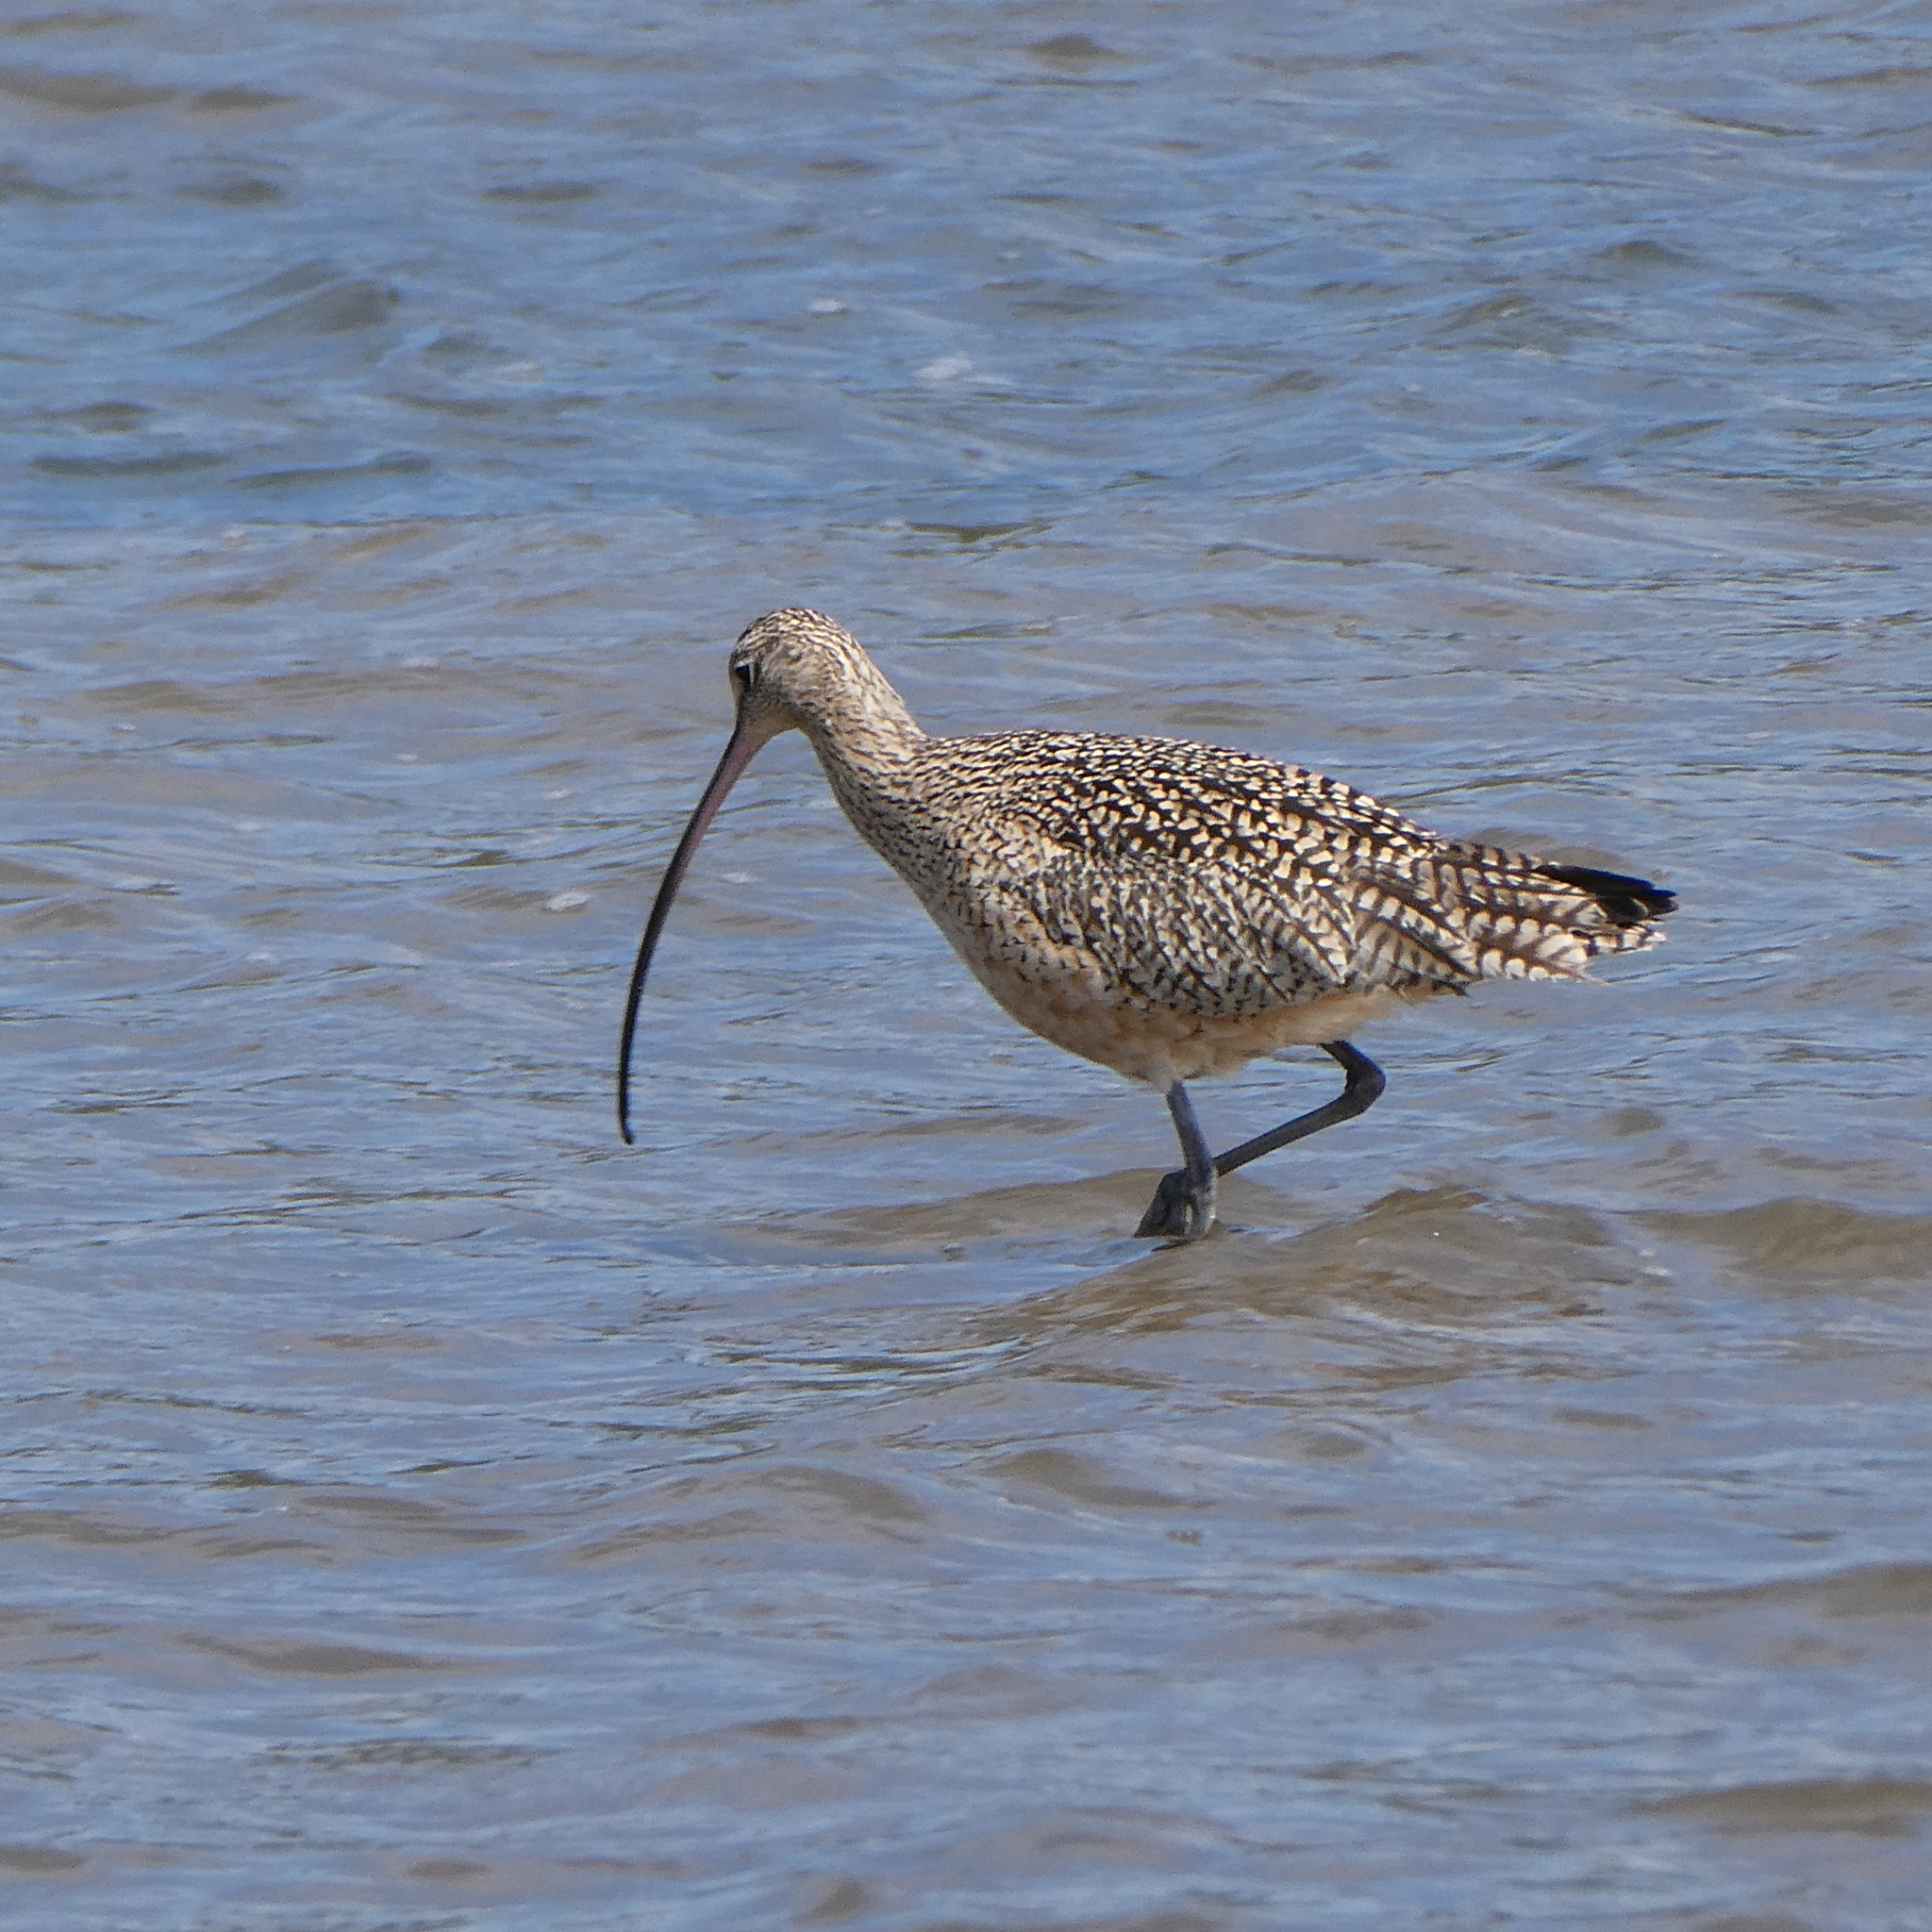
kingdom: Animalia
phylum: Chordata
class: Aves
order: Charadriiformes
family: Scolopacidae
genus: Numenius
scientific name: Numenius americanus
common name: Long-billed curlew
